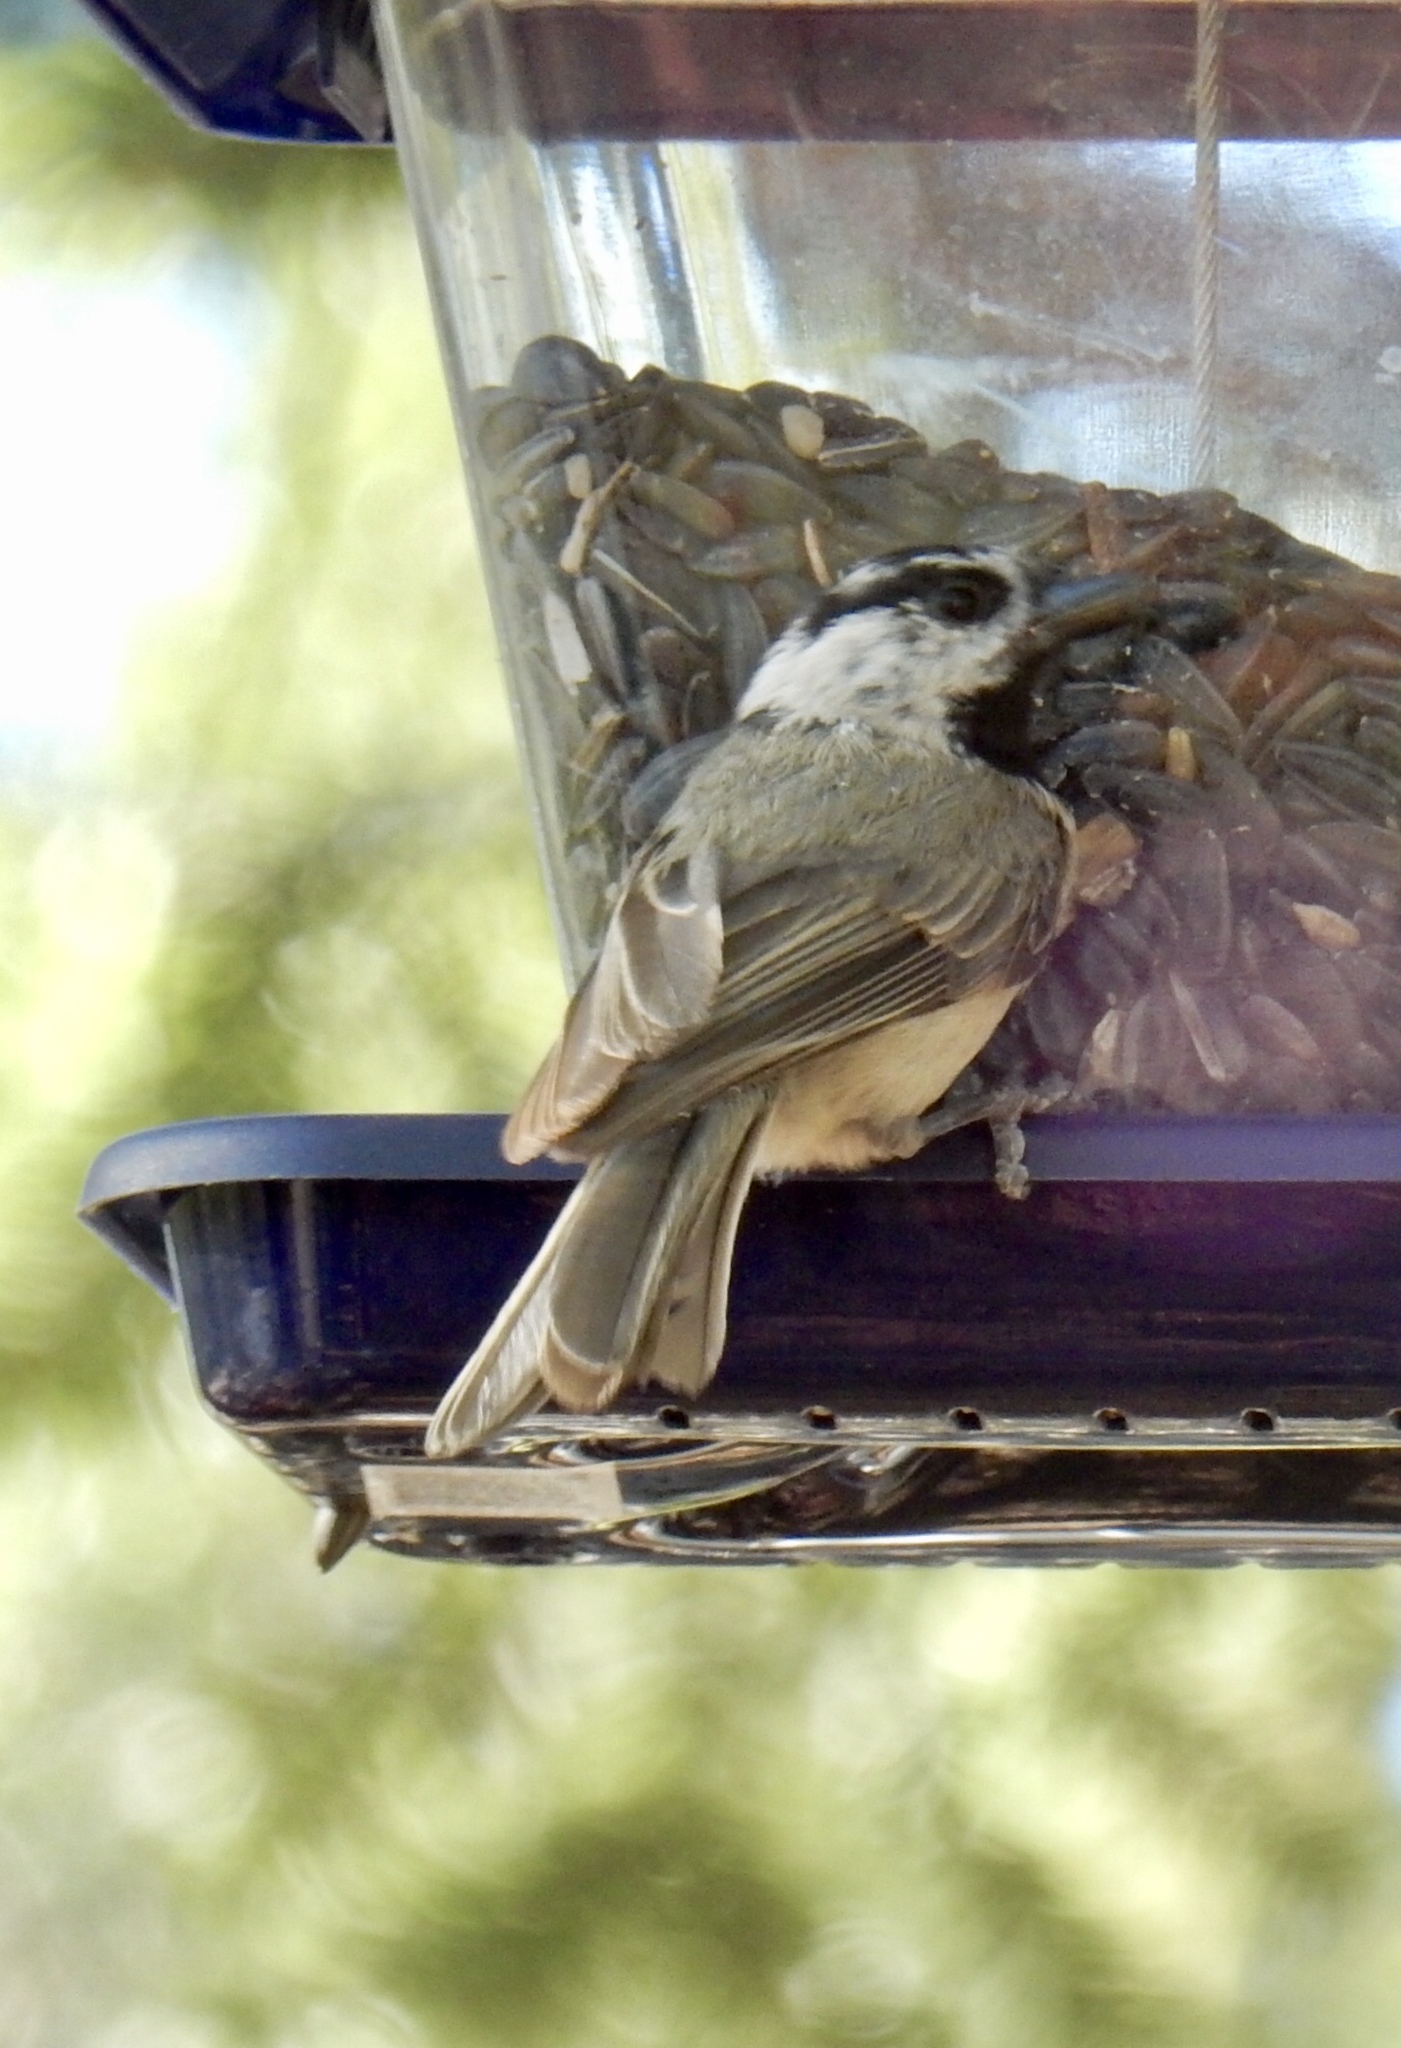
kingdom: Animalia
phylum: Chordata
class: Aves
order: Passeriformes
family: Paridae
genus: Poecile
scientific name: Poecile gambeli
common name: Mountain chickadee
